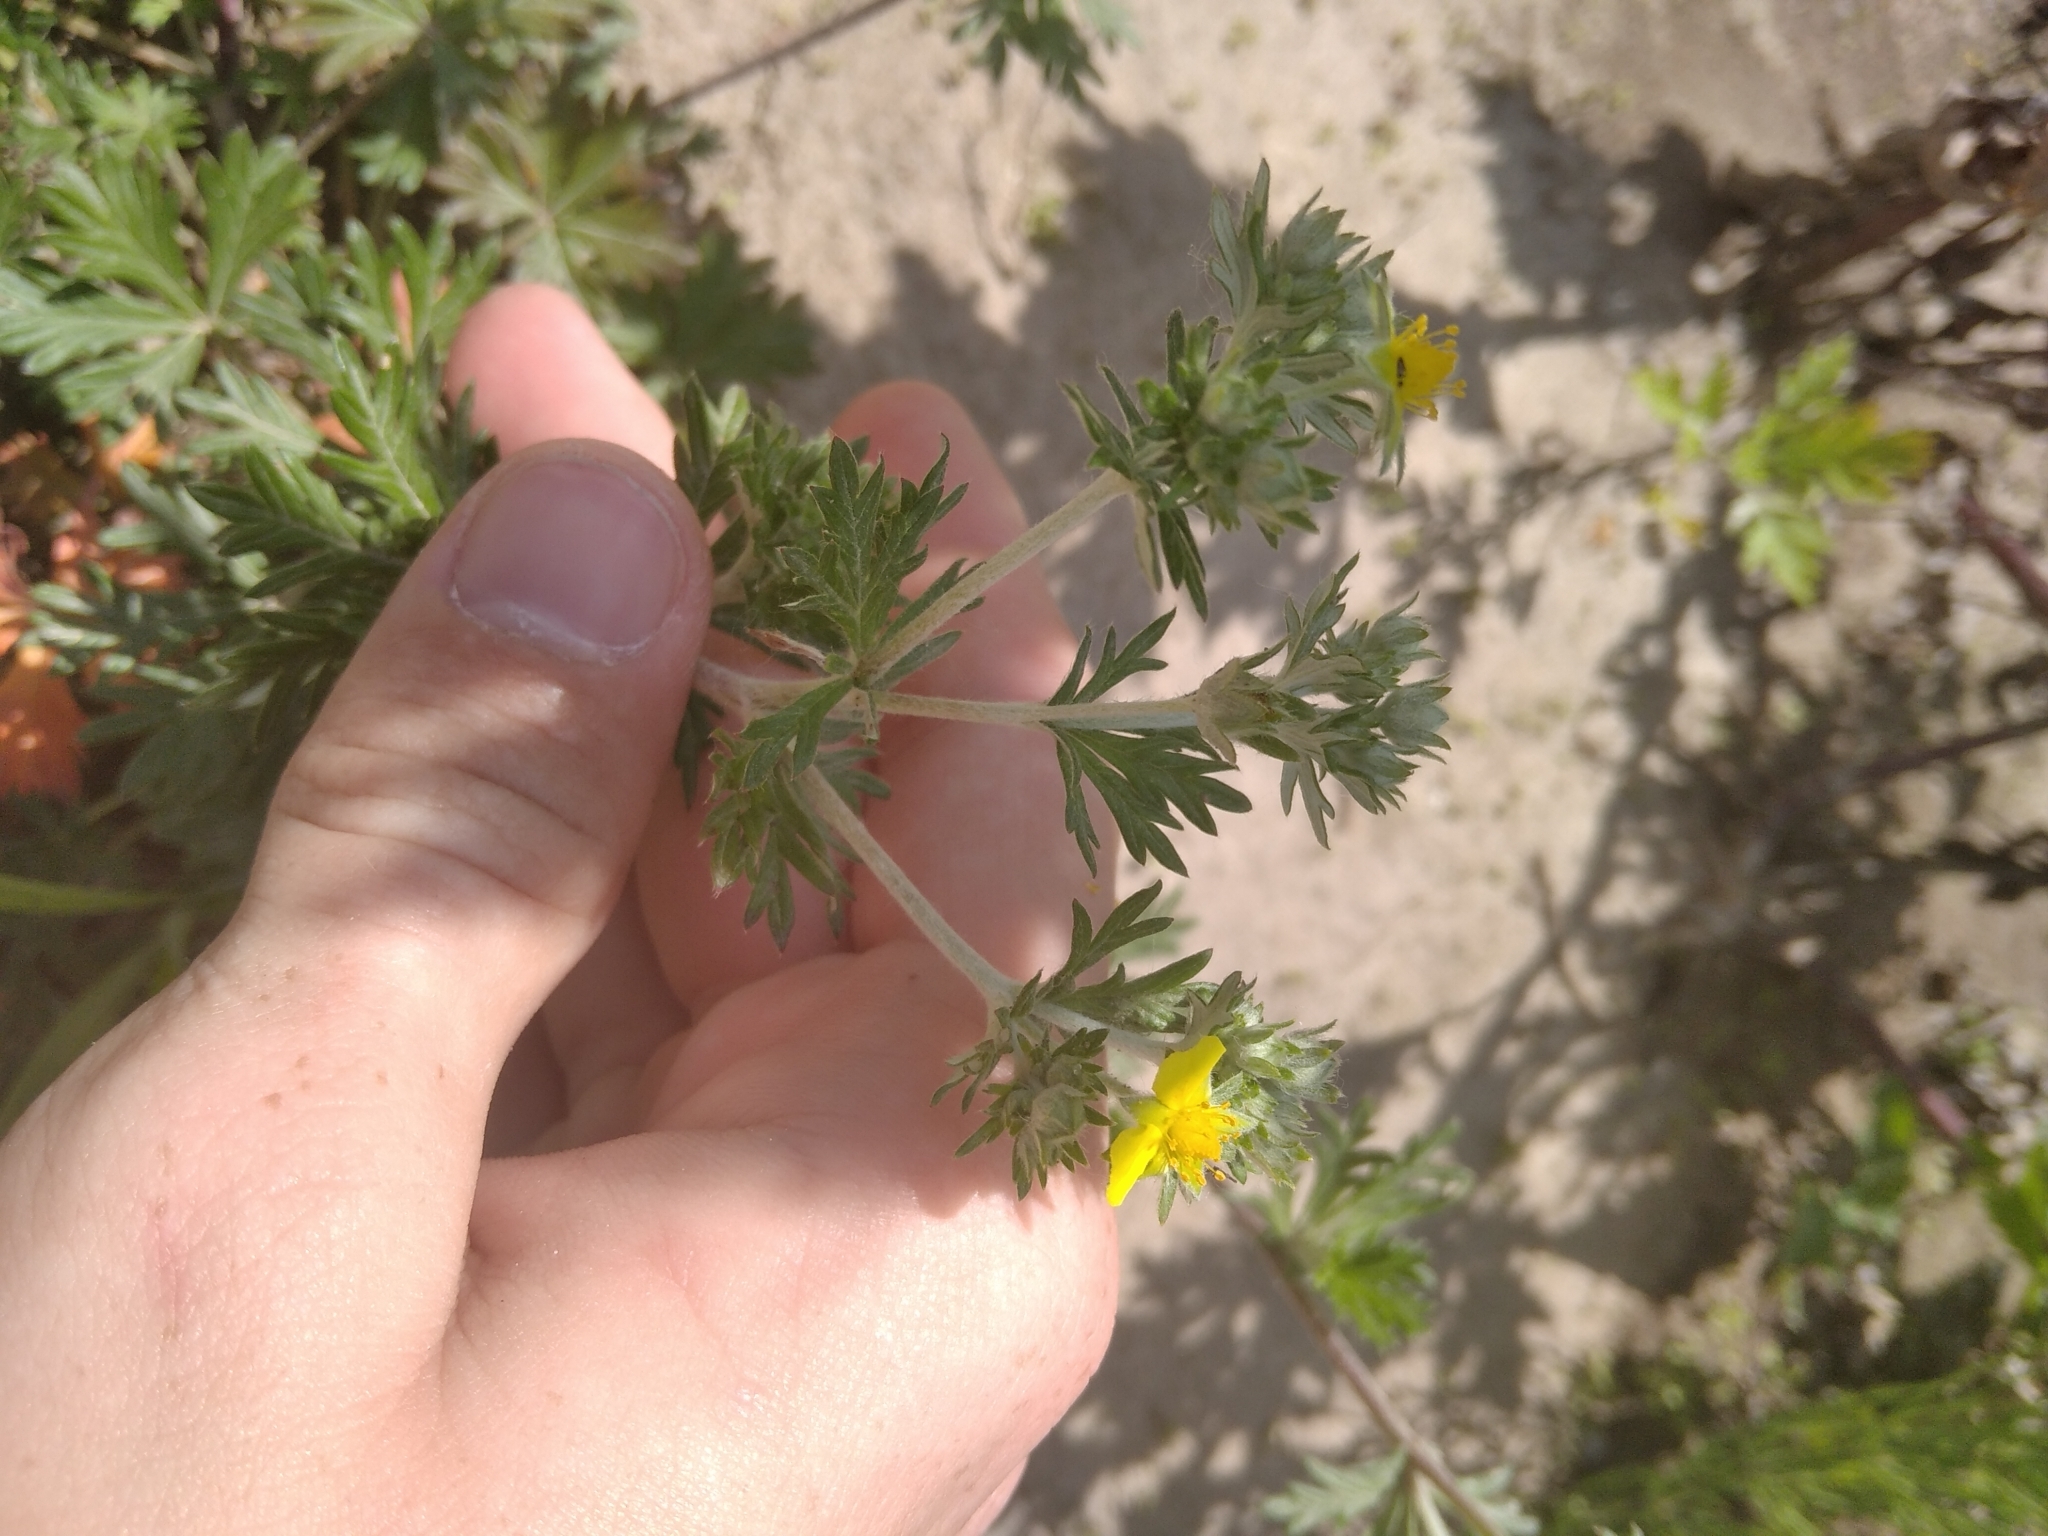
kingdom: Plantae
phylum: Tracheophyta
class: Magnoliopsida
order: Rosales
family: Rosaceae
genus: Potentilla
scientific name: Potentilla argentea
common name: Hoary cinquefoil
